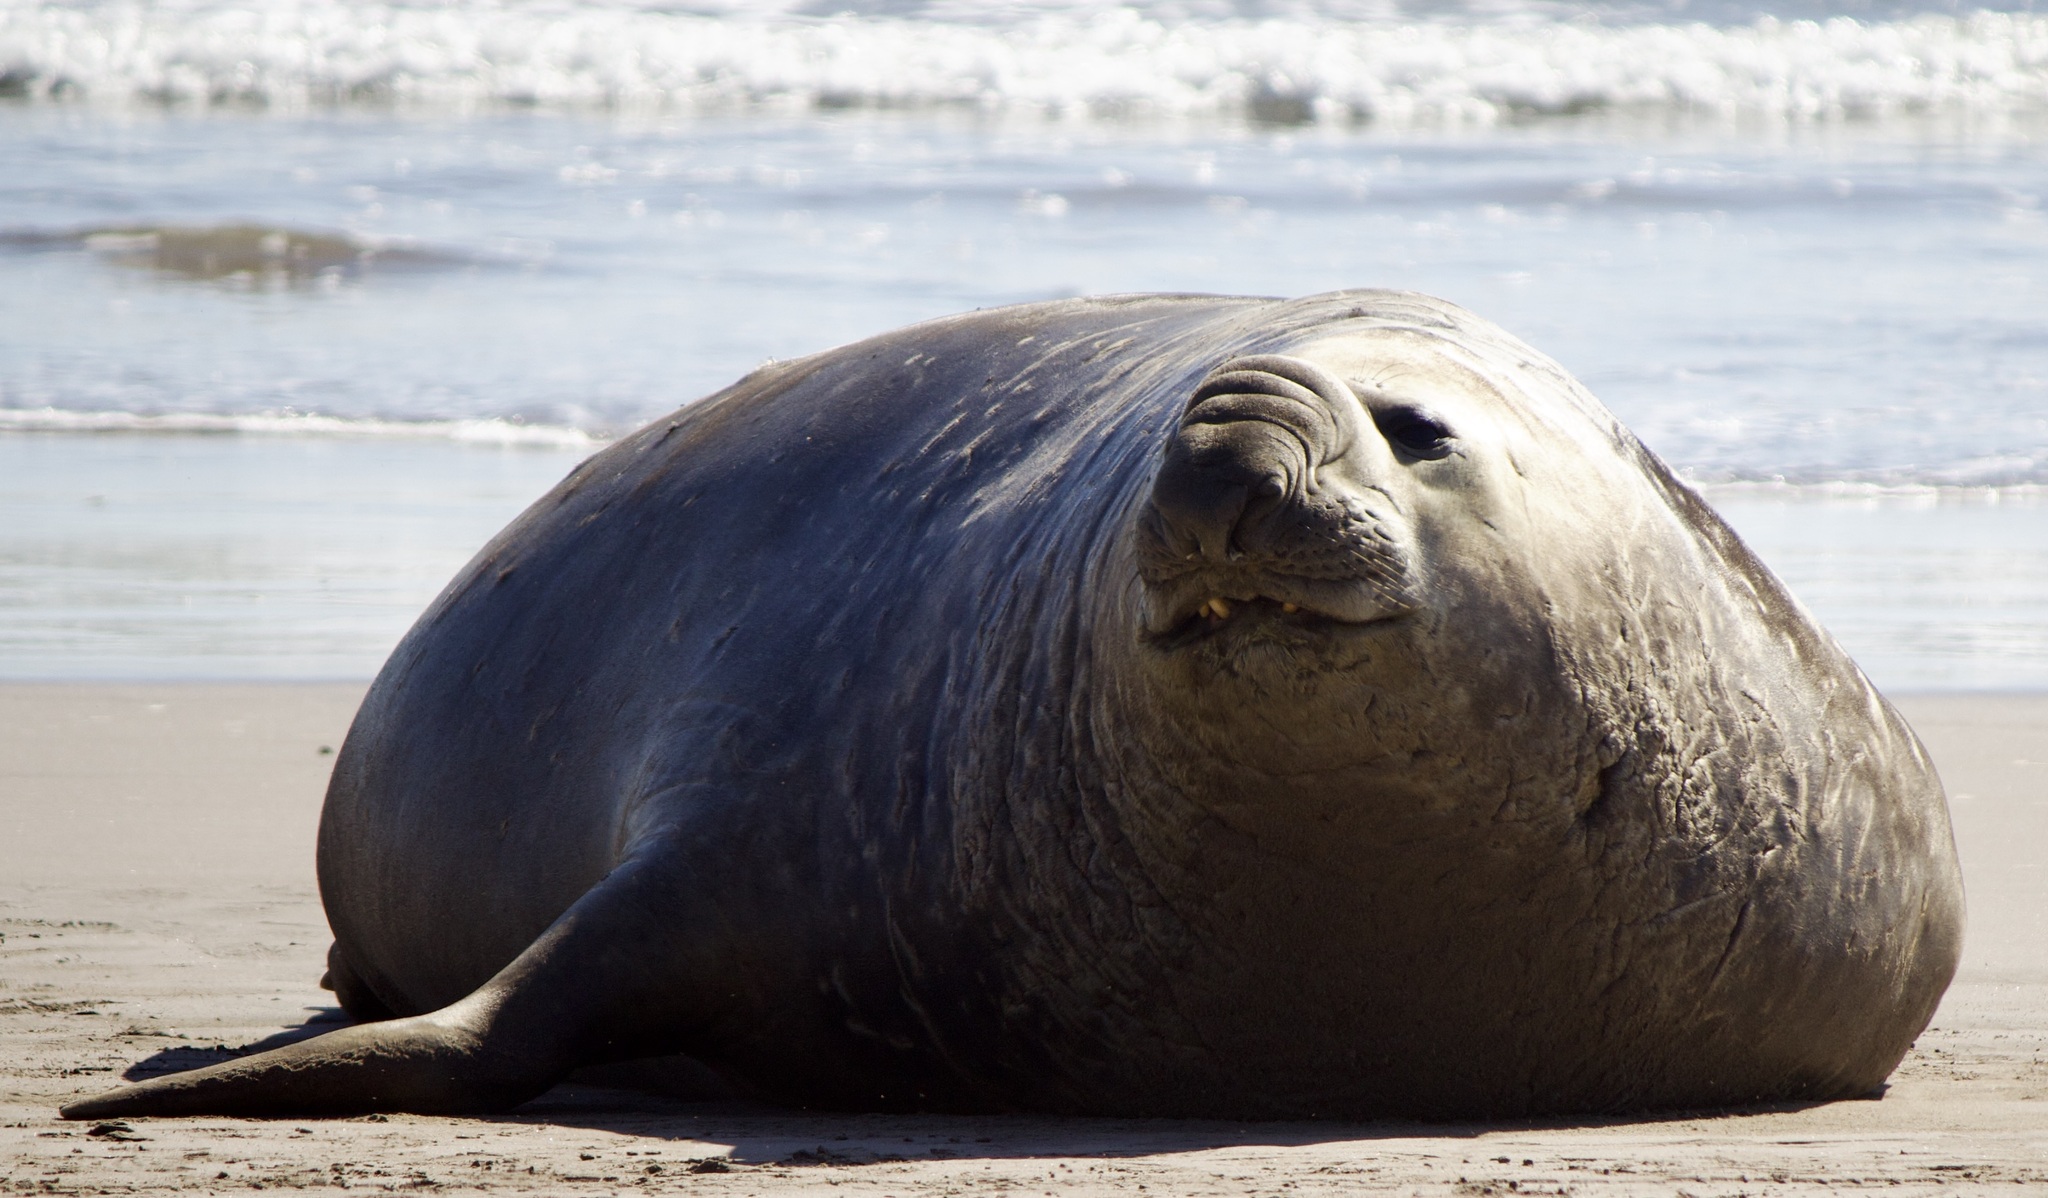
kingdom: Animalia
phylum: Chordata
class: Mammalia
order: Carnivora
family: Phocidae
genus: Mirounga
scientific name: Mirounga leonina
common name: Southern elephant seal
